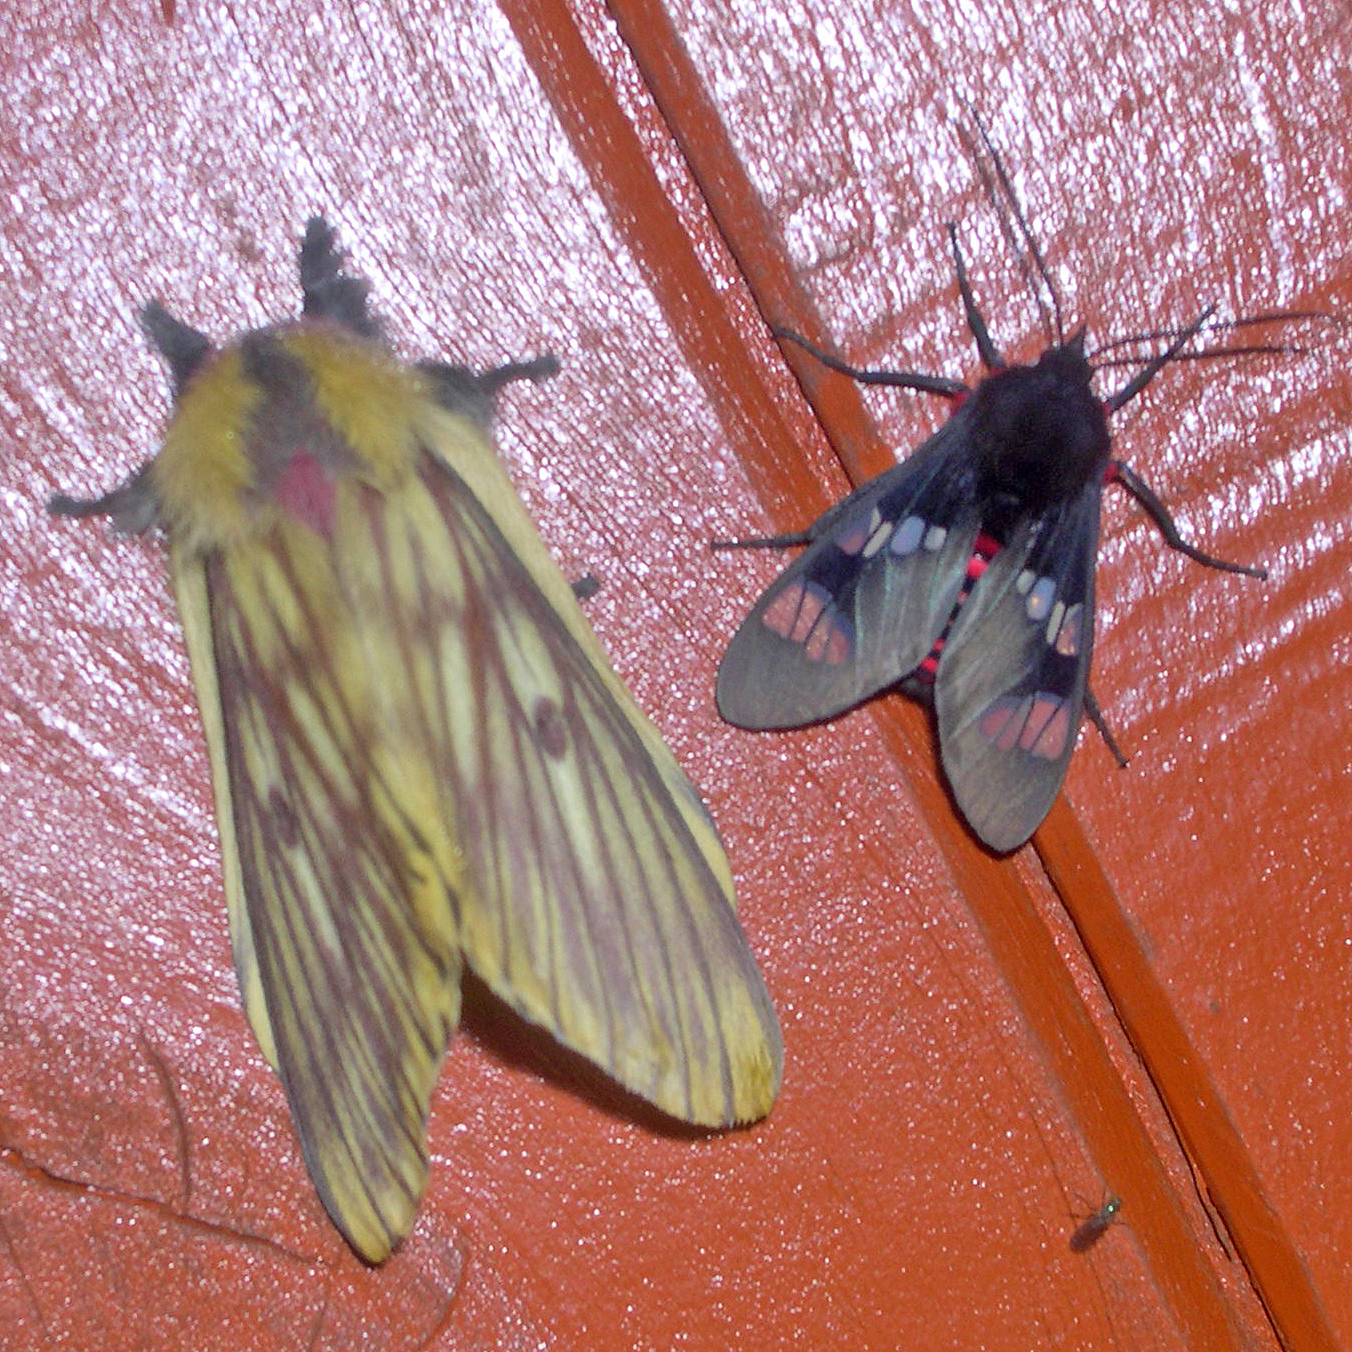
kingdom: Animalia
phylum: Arthropoda
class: Insecta
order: Lepidoptera
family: Erebidae
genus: Scelilasia
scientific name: Scelilasia erythrozonata
